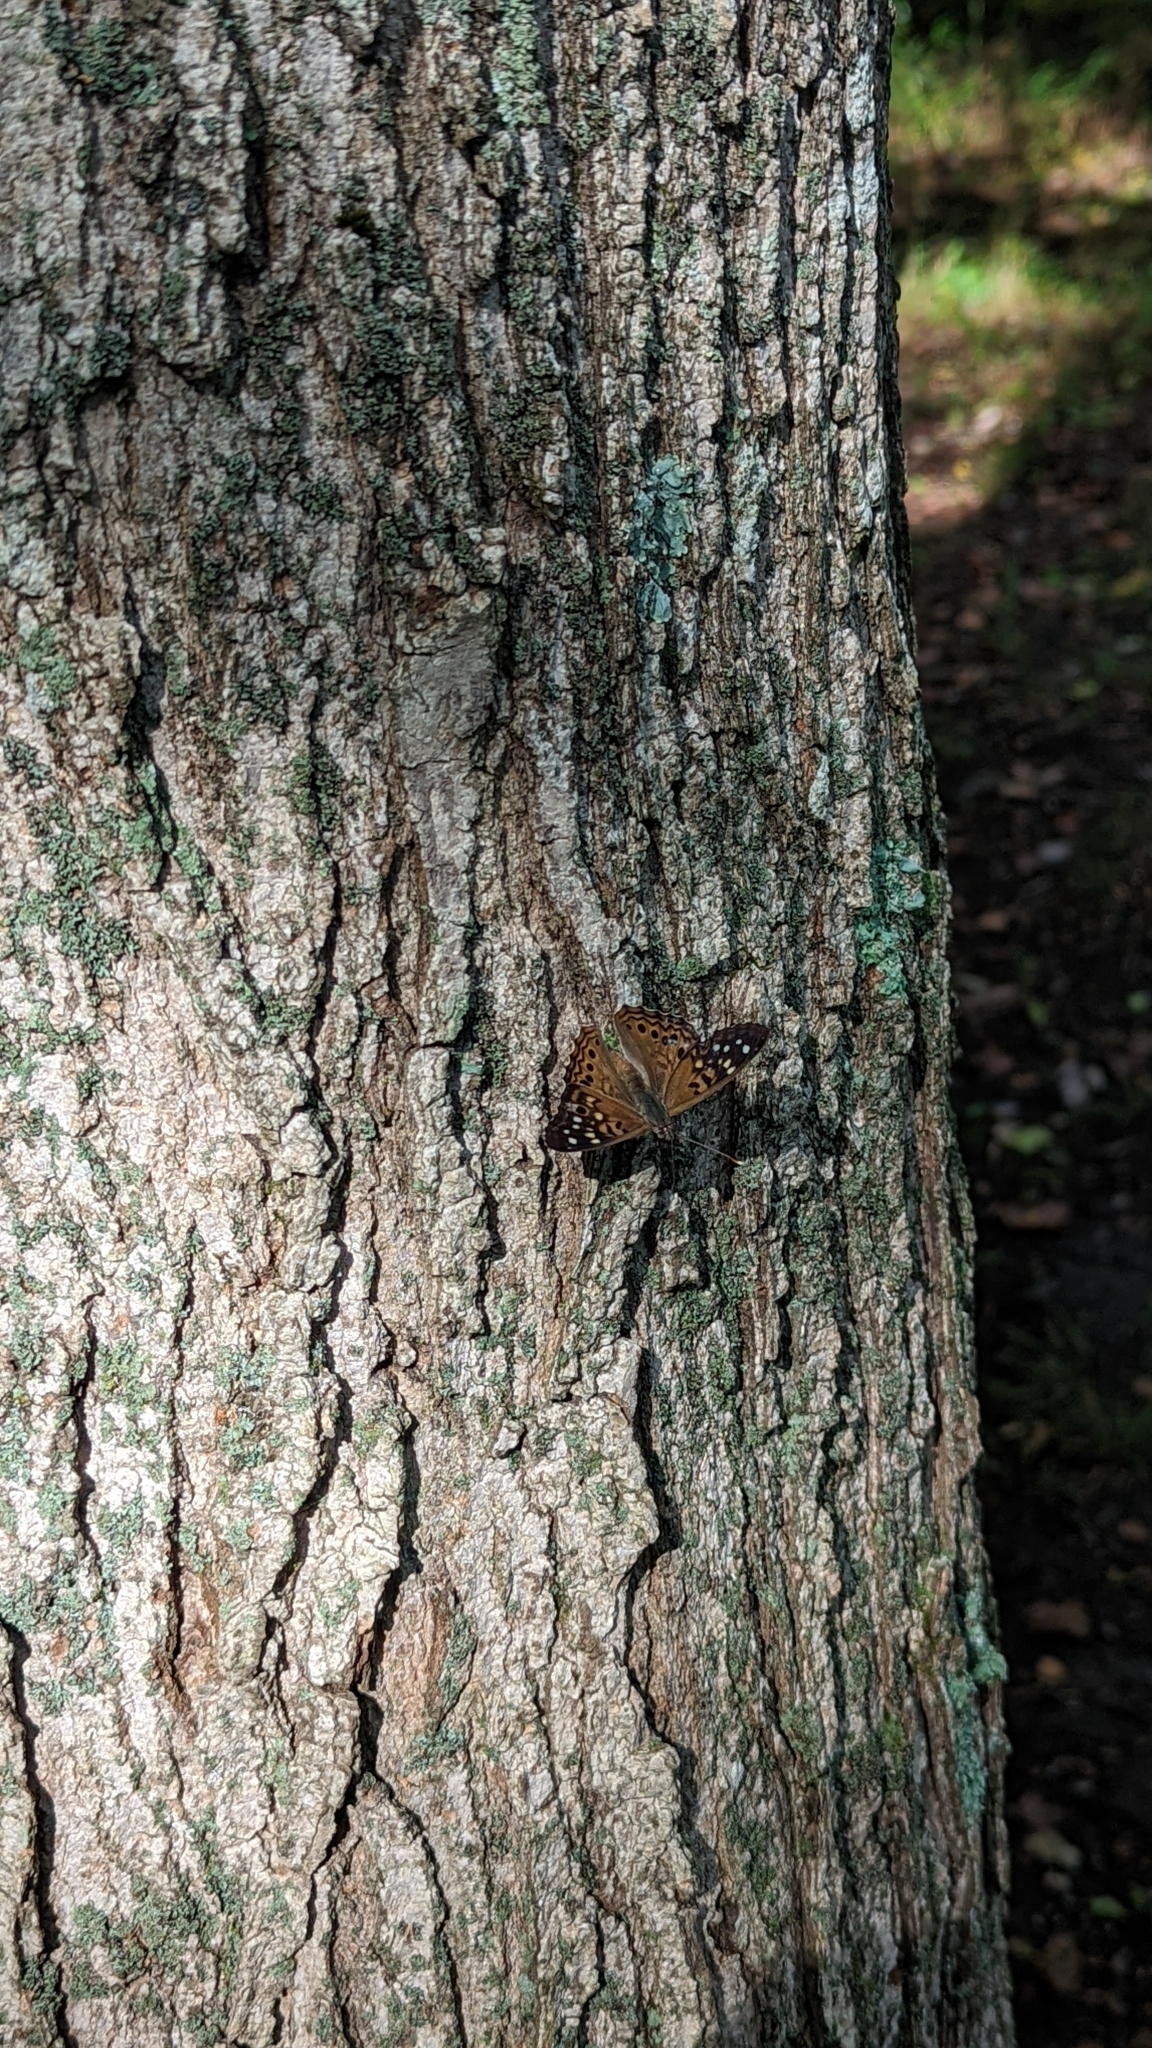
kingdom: Animalia
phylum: Arthropoda
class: Insecta
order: Lepidoptera
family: Nymphalidae
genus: Asterocampa
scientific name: Asterocampa celtis
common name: Hackberry emperor
